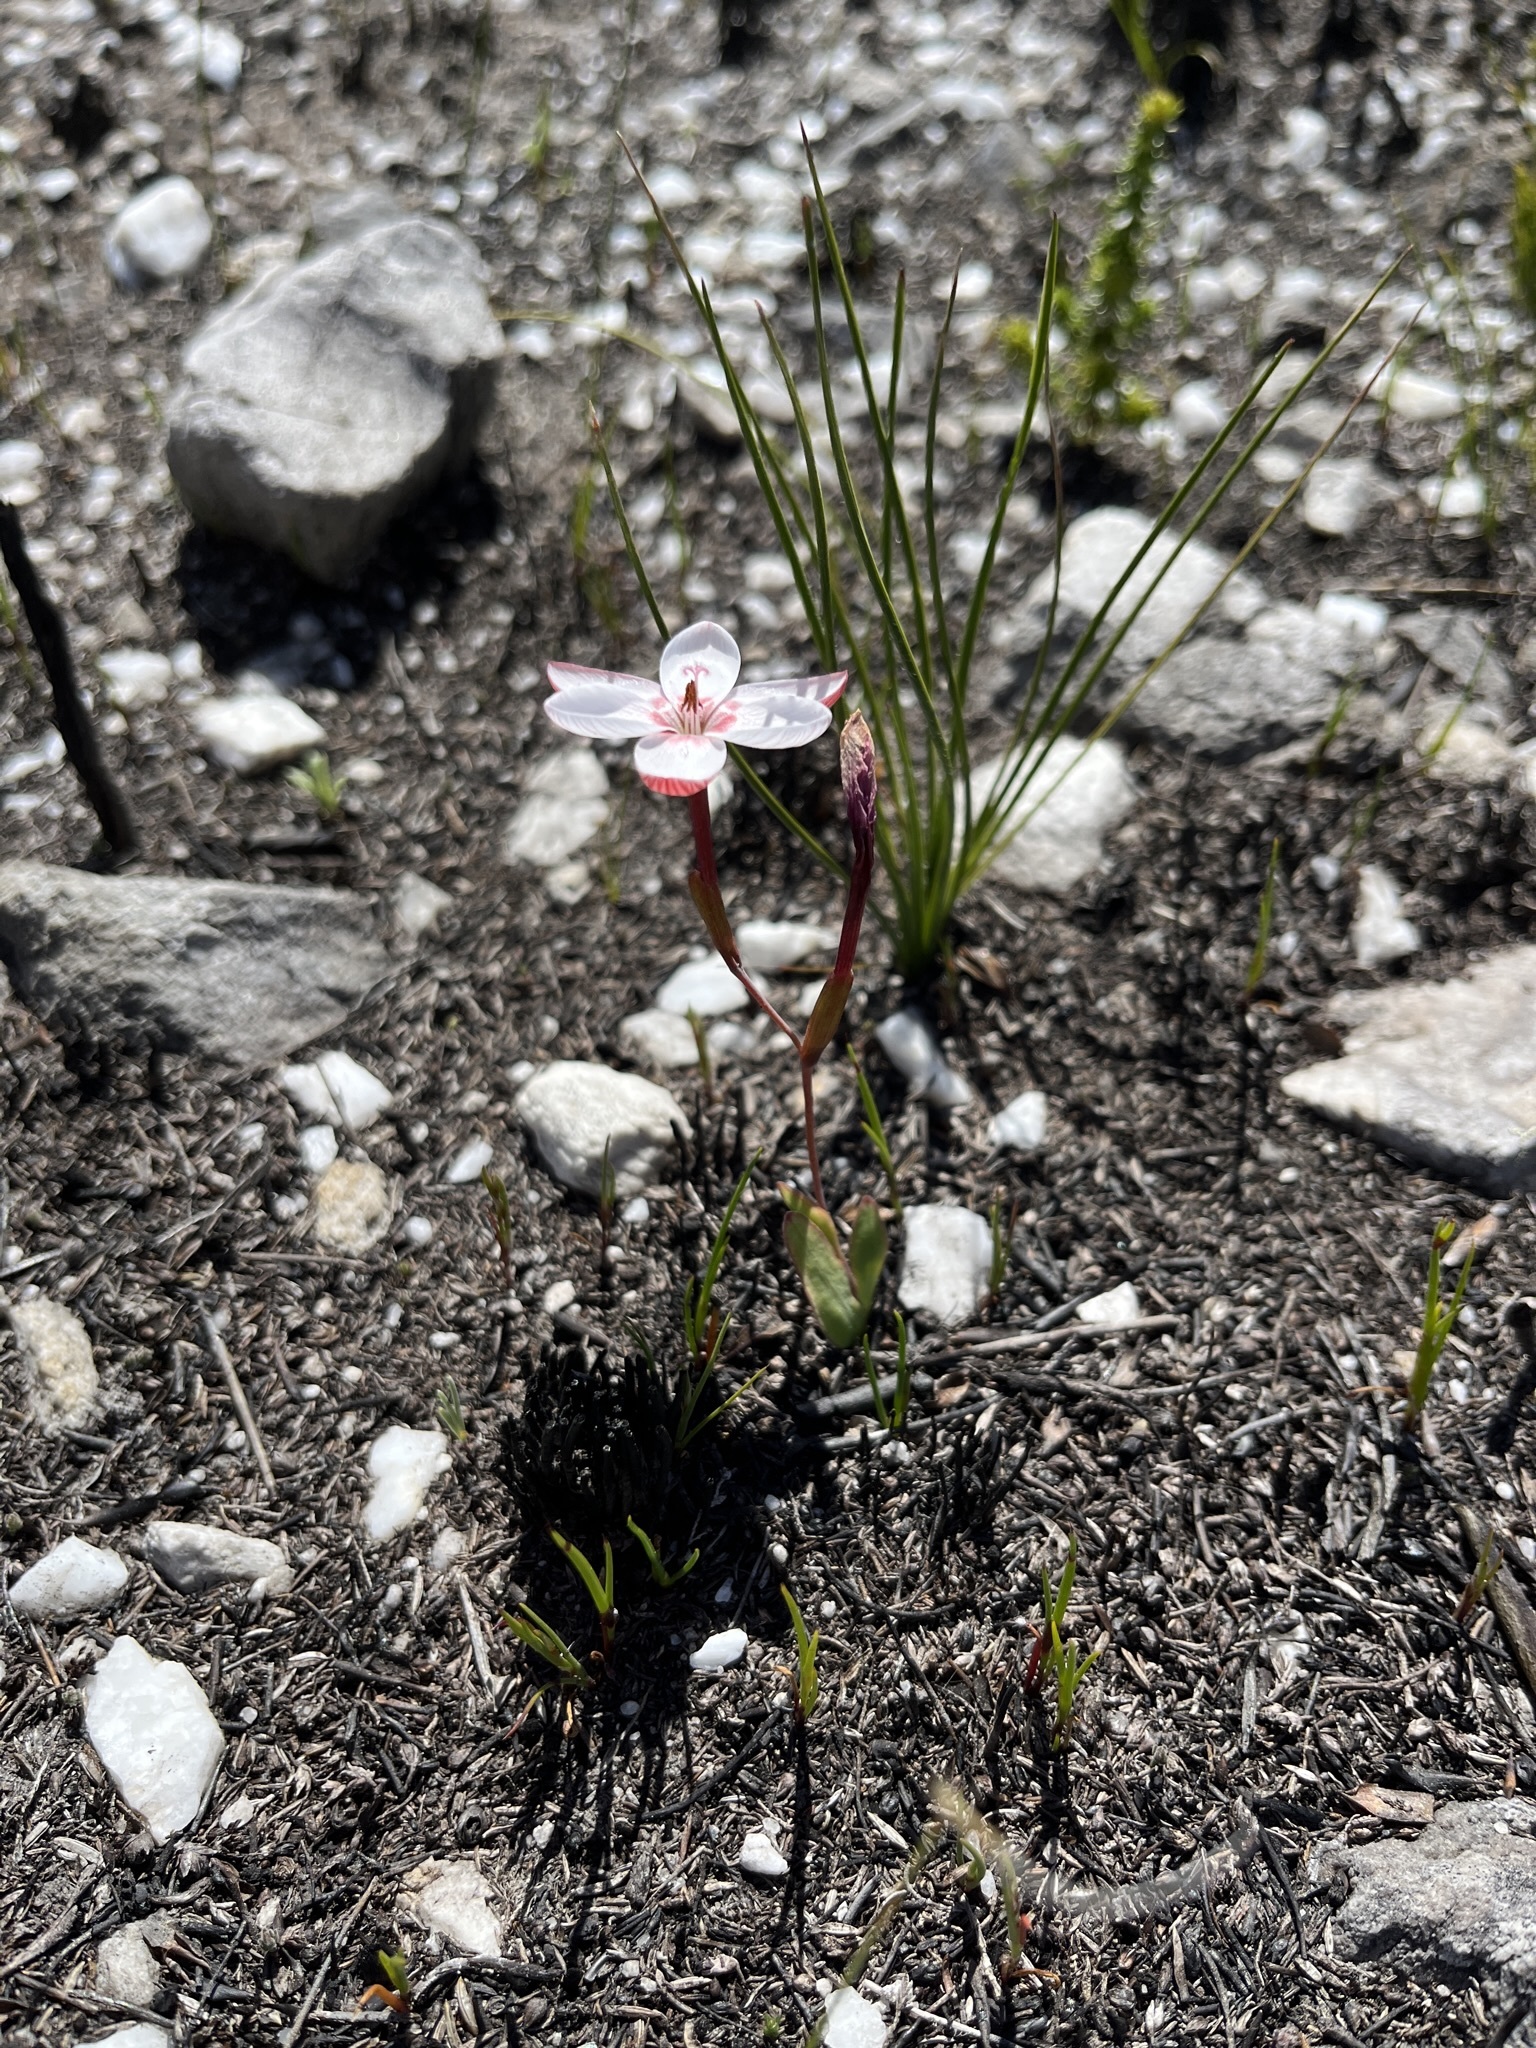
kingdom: Plantae
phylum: Tracheophyta
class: Liliopsida
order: Asparagales
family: Iridaceae
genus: Geissorhiza
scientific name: Geissorhiza ovata
